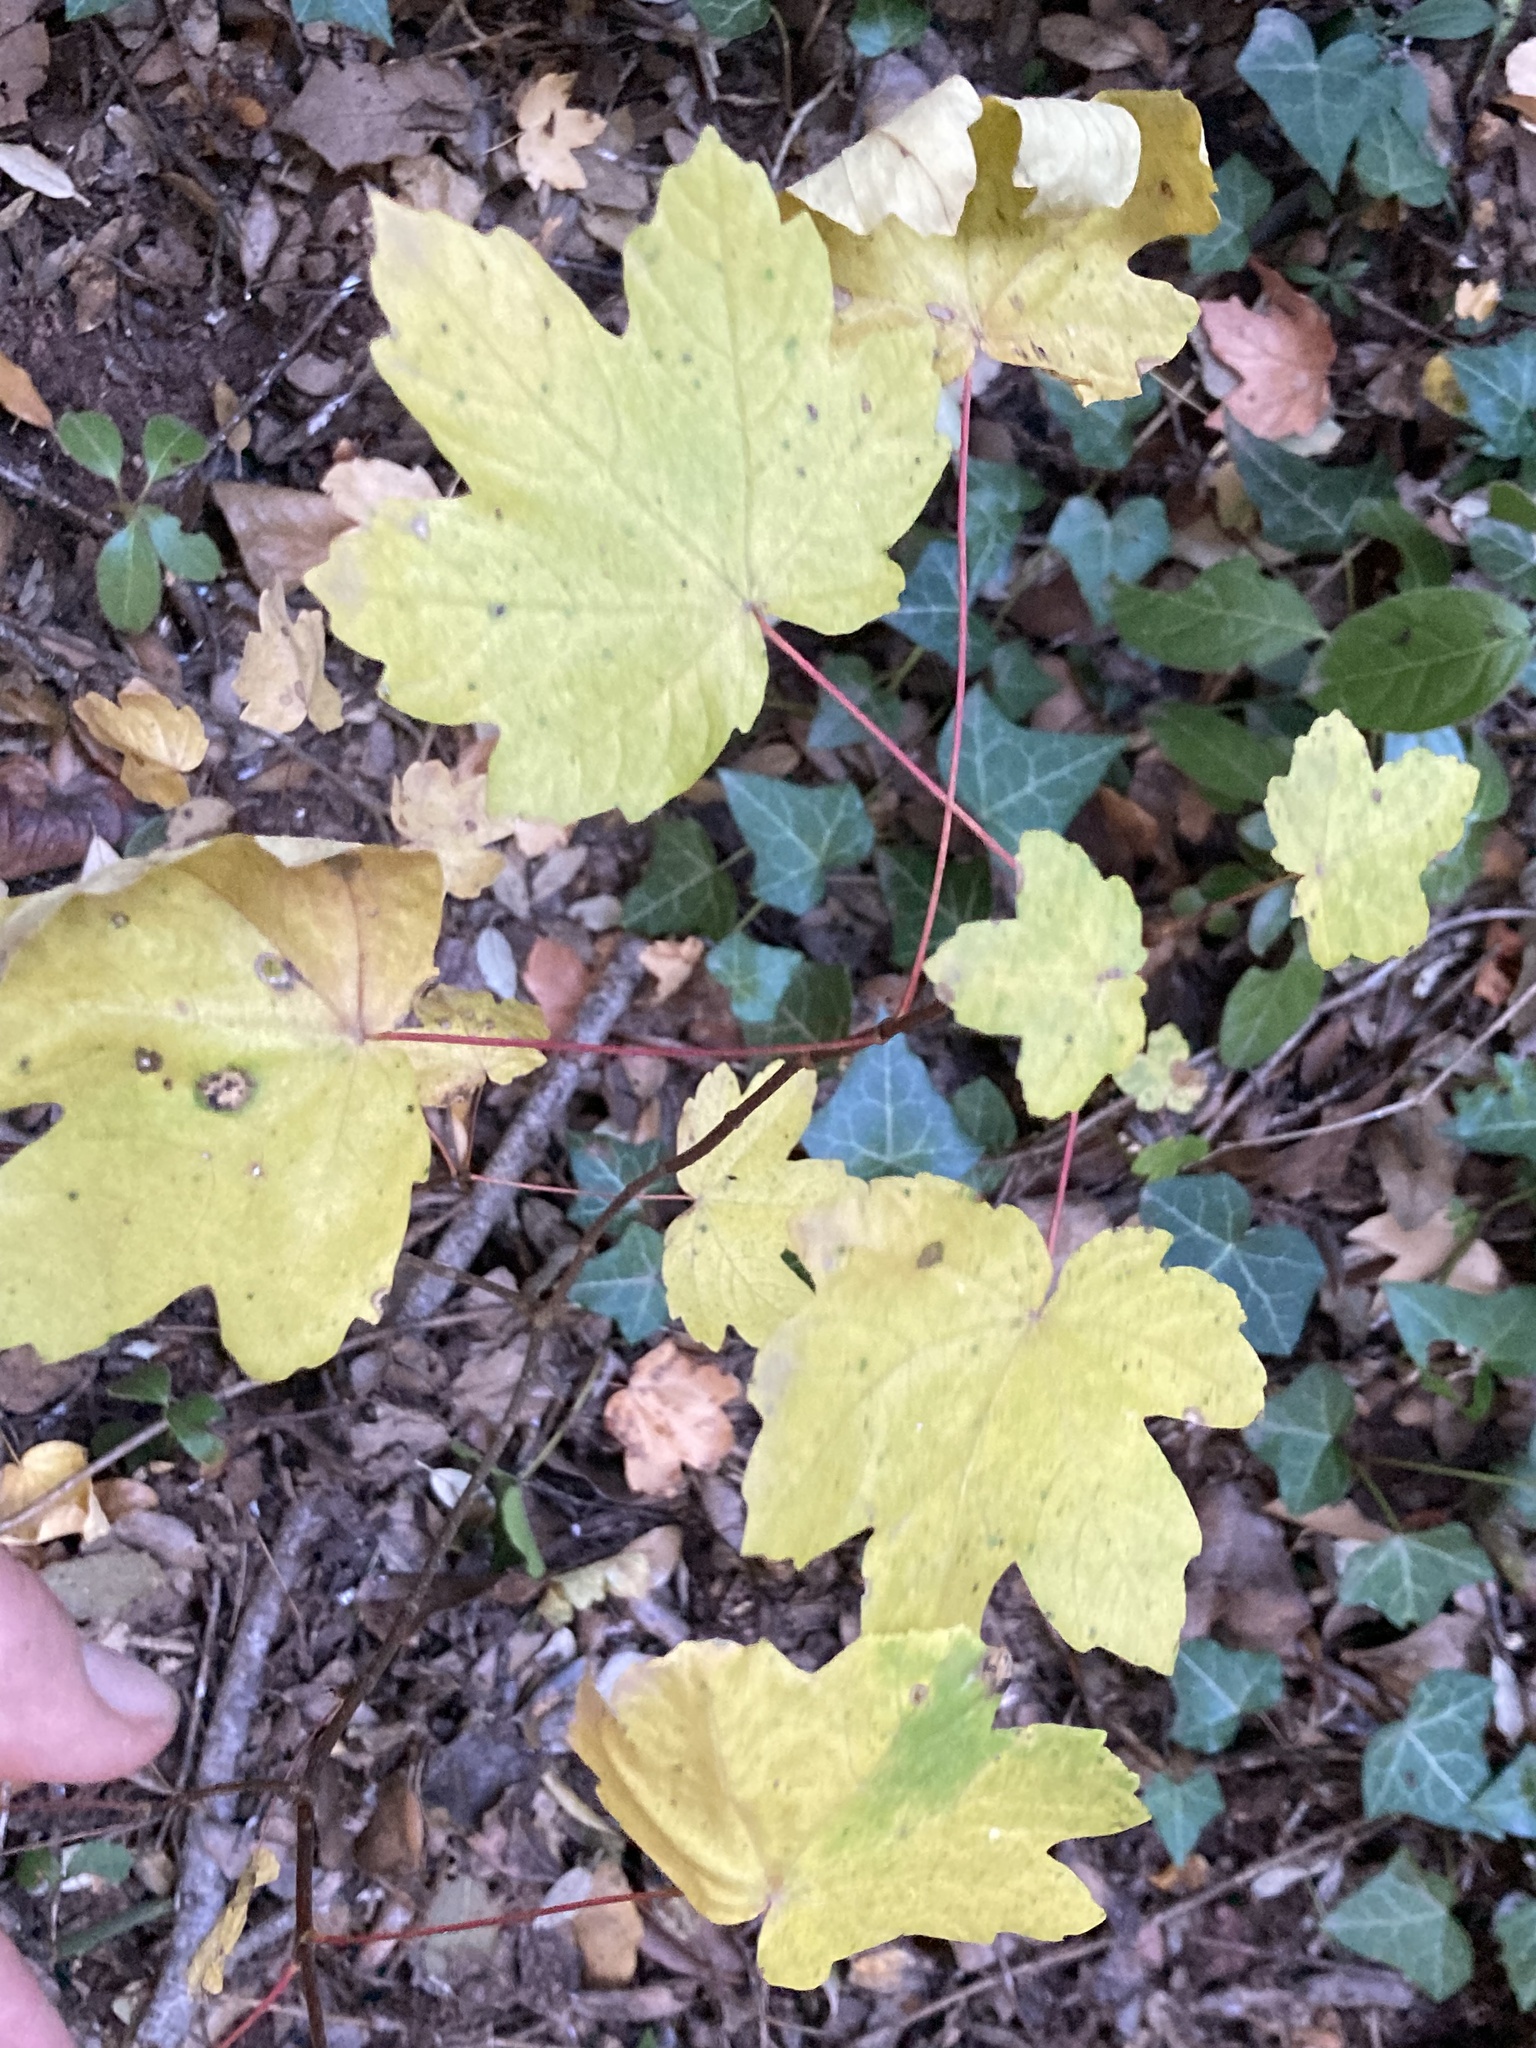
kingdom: Plantae
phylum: Tracheophyta
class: Magnoliopsida
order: Sapindales
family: Sapindaceae
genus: Acer
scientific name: Acer pseudoplatanus
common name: Sycamore
